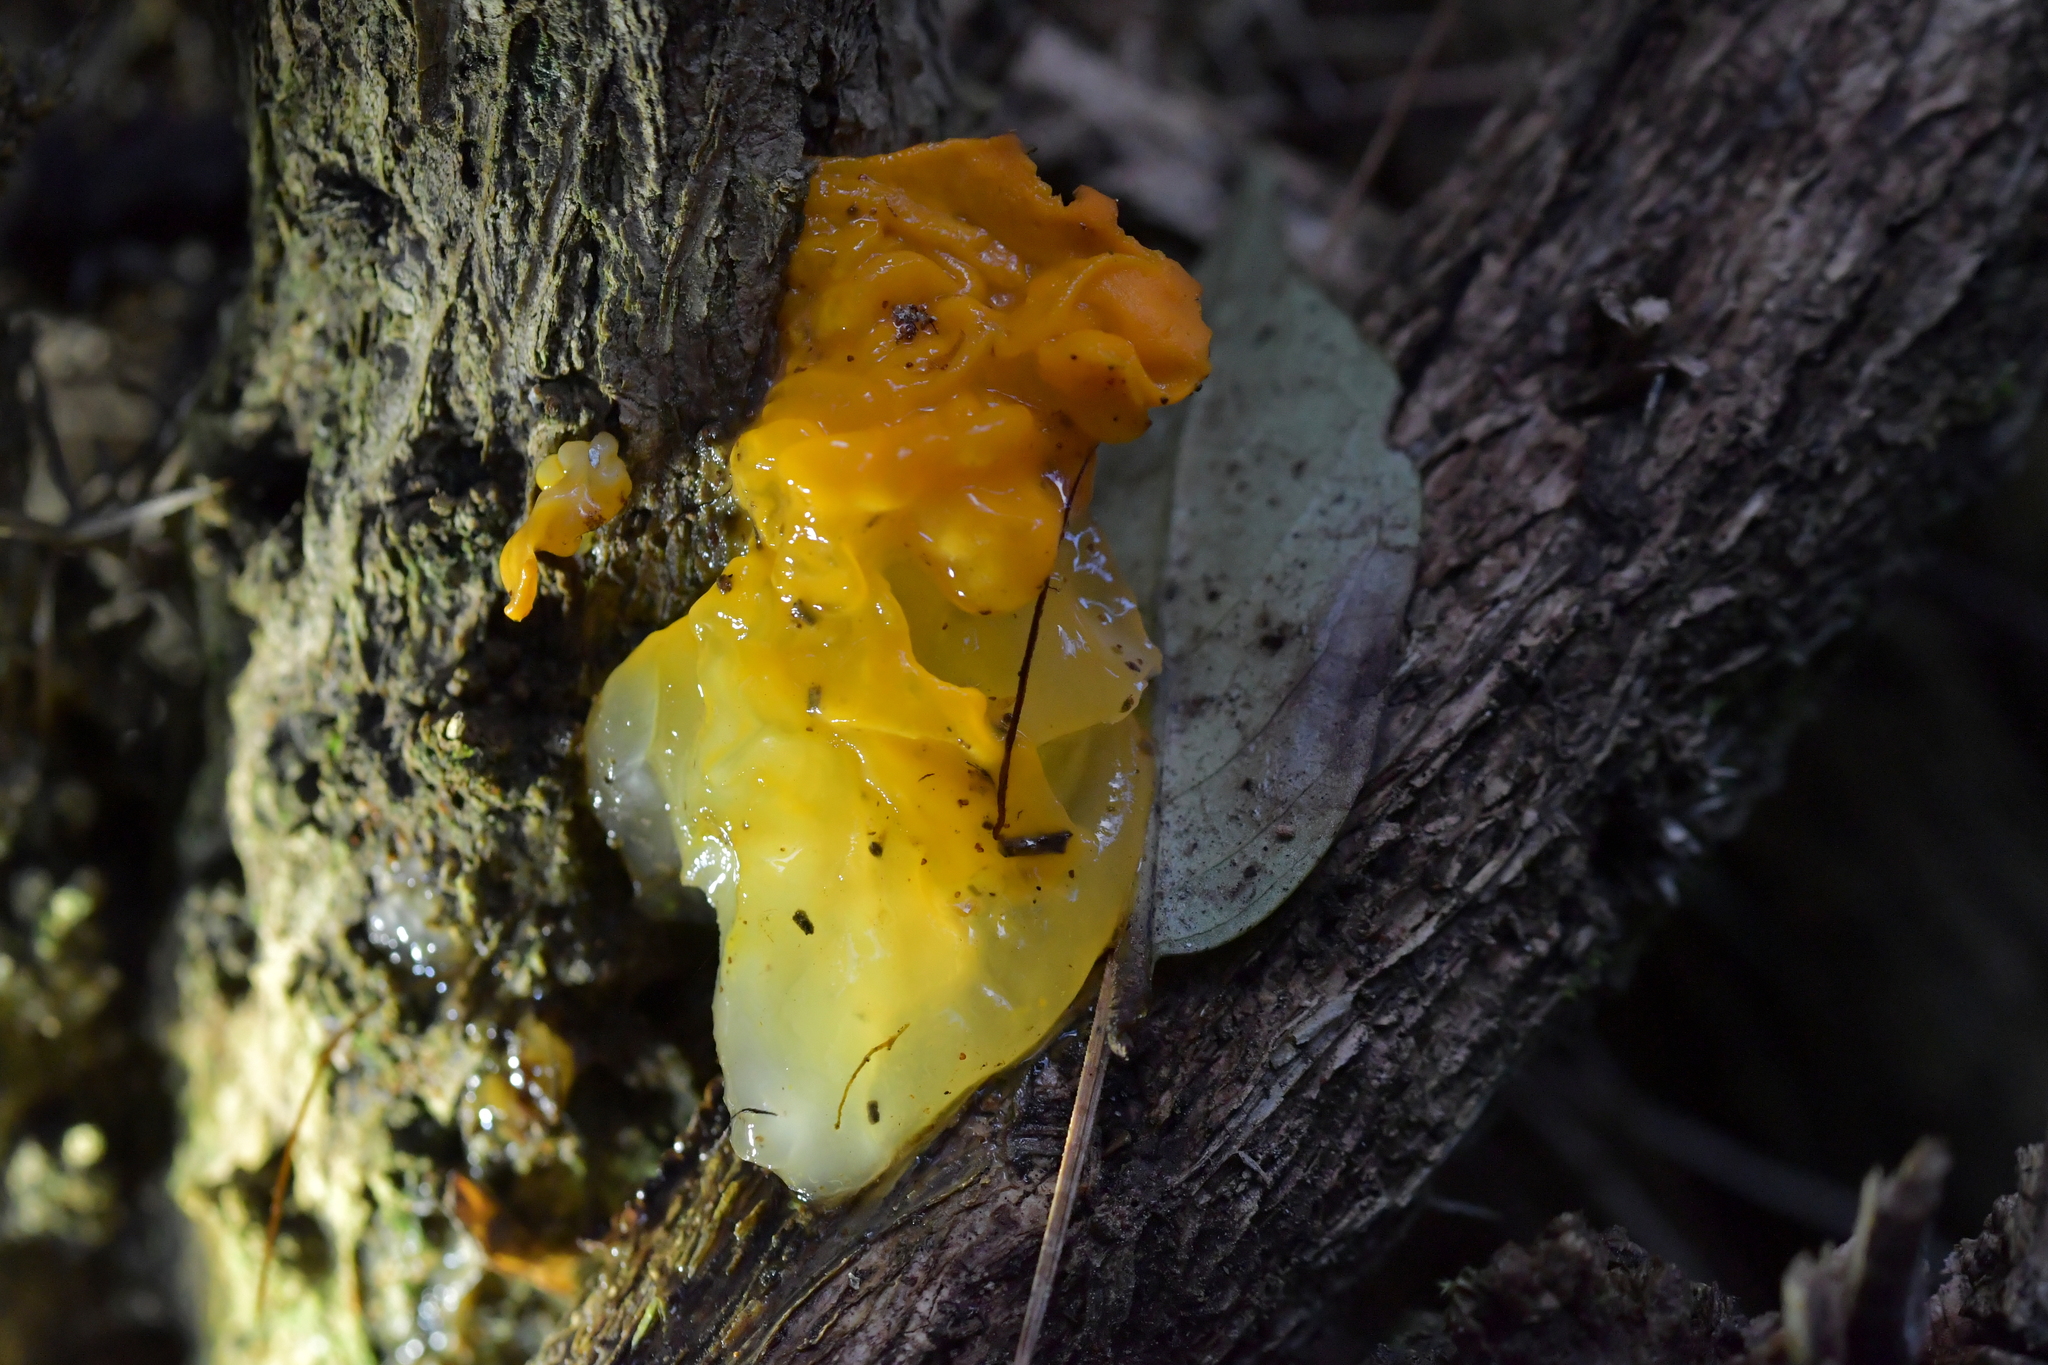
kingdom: Fungi
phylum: Basidiomycota
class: Tremellomycetes
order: Tremellales
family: Tremellaceae
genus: Tremella
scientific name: Tremella mesenterica
